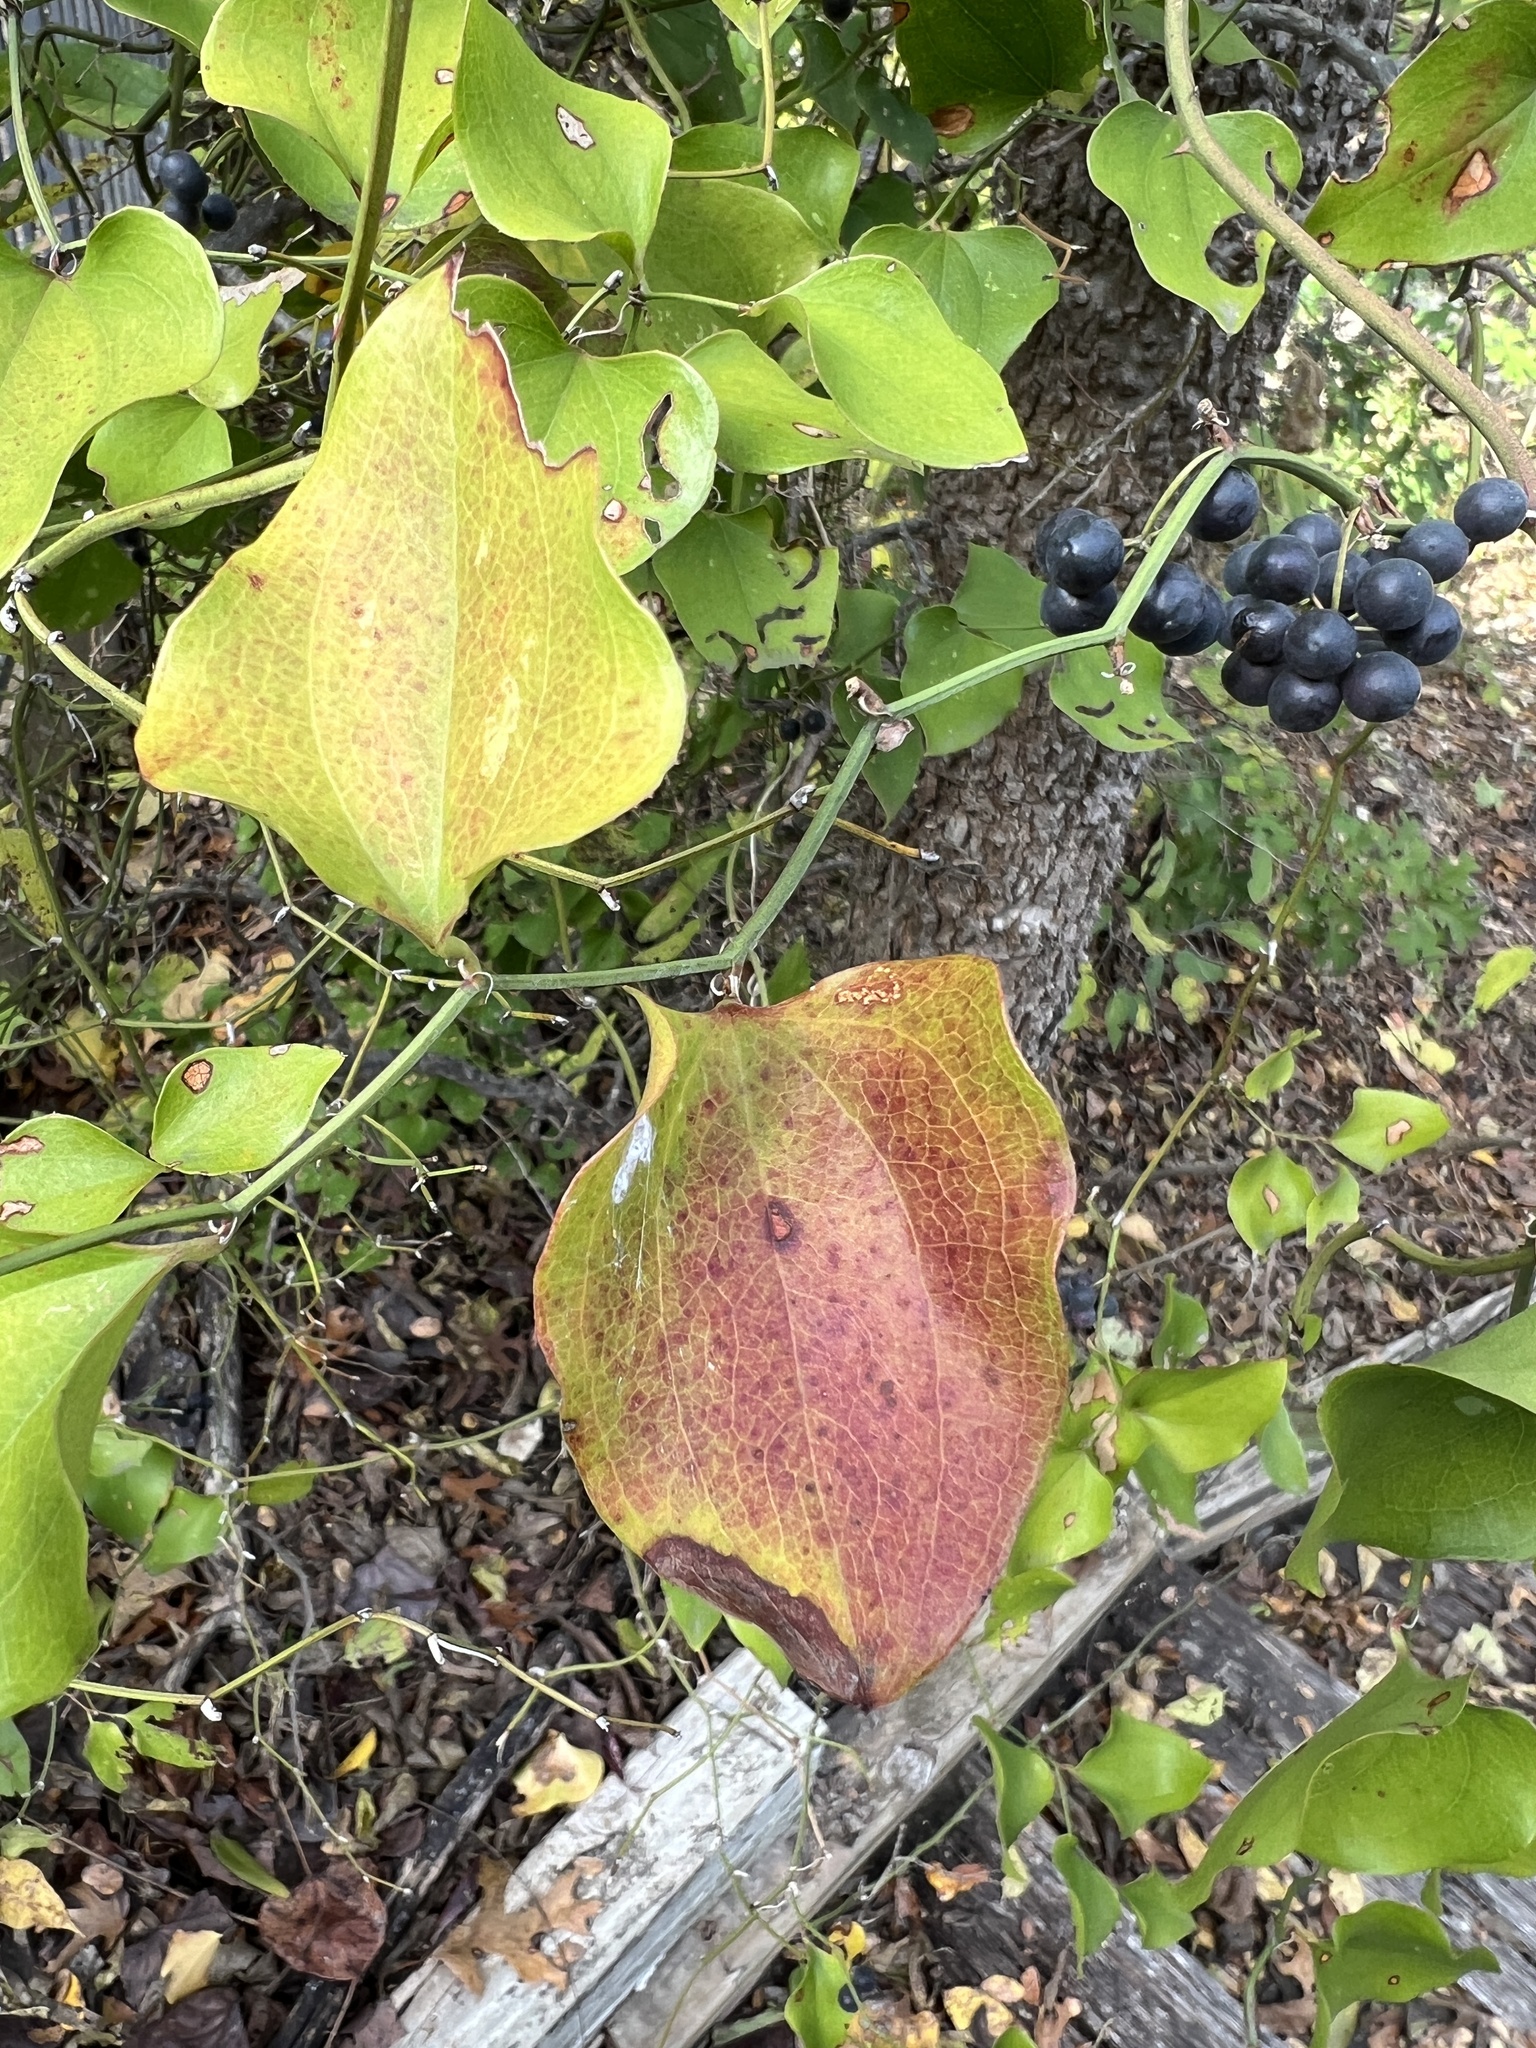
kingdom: Plantae
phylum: Tracheophyta
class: Liliopsida
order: Liliales
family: Smilacaceae
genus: Smilax
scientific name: Smilax bona-nox
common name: Catbrier
